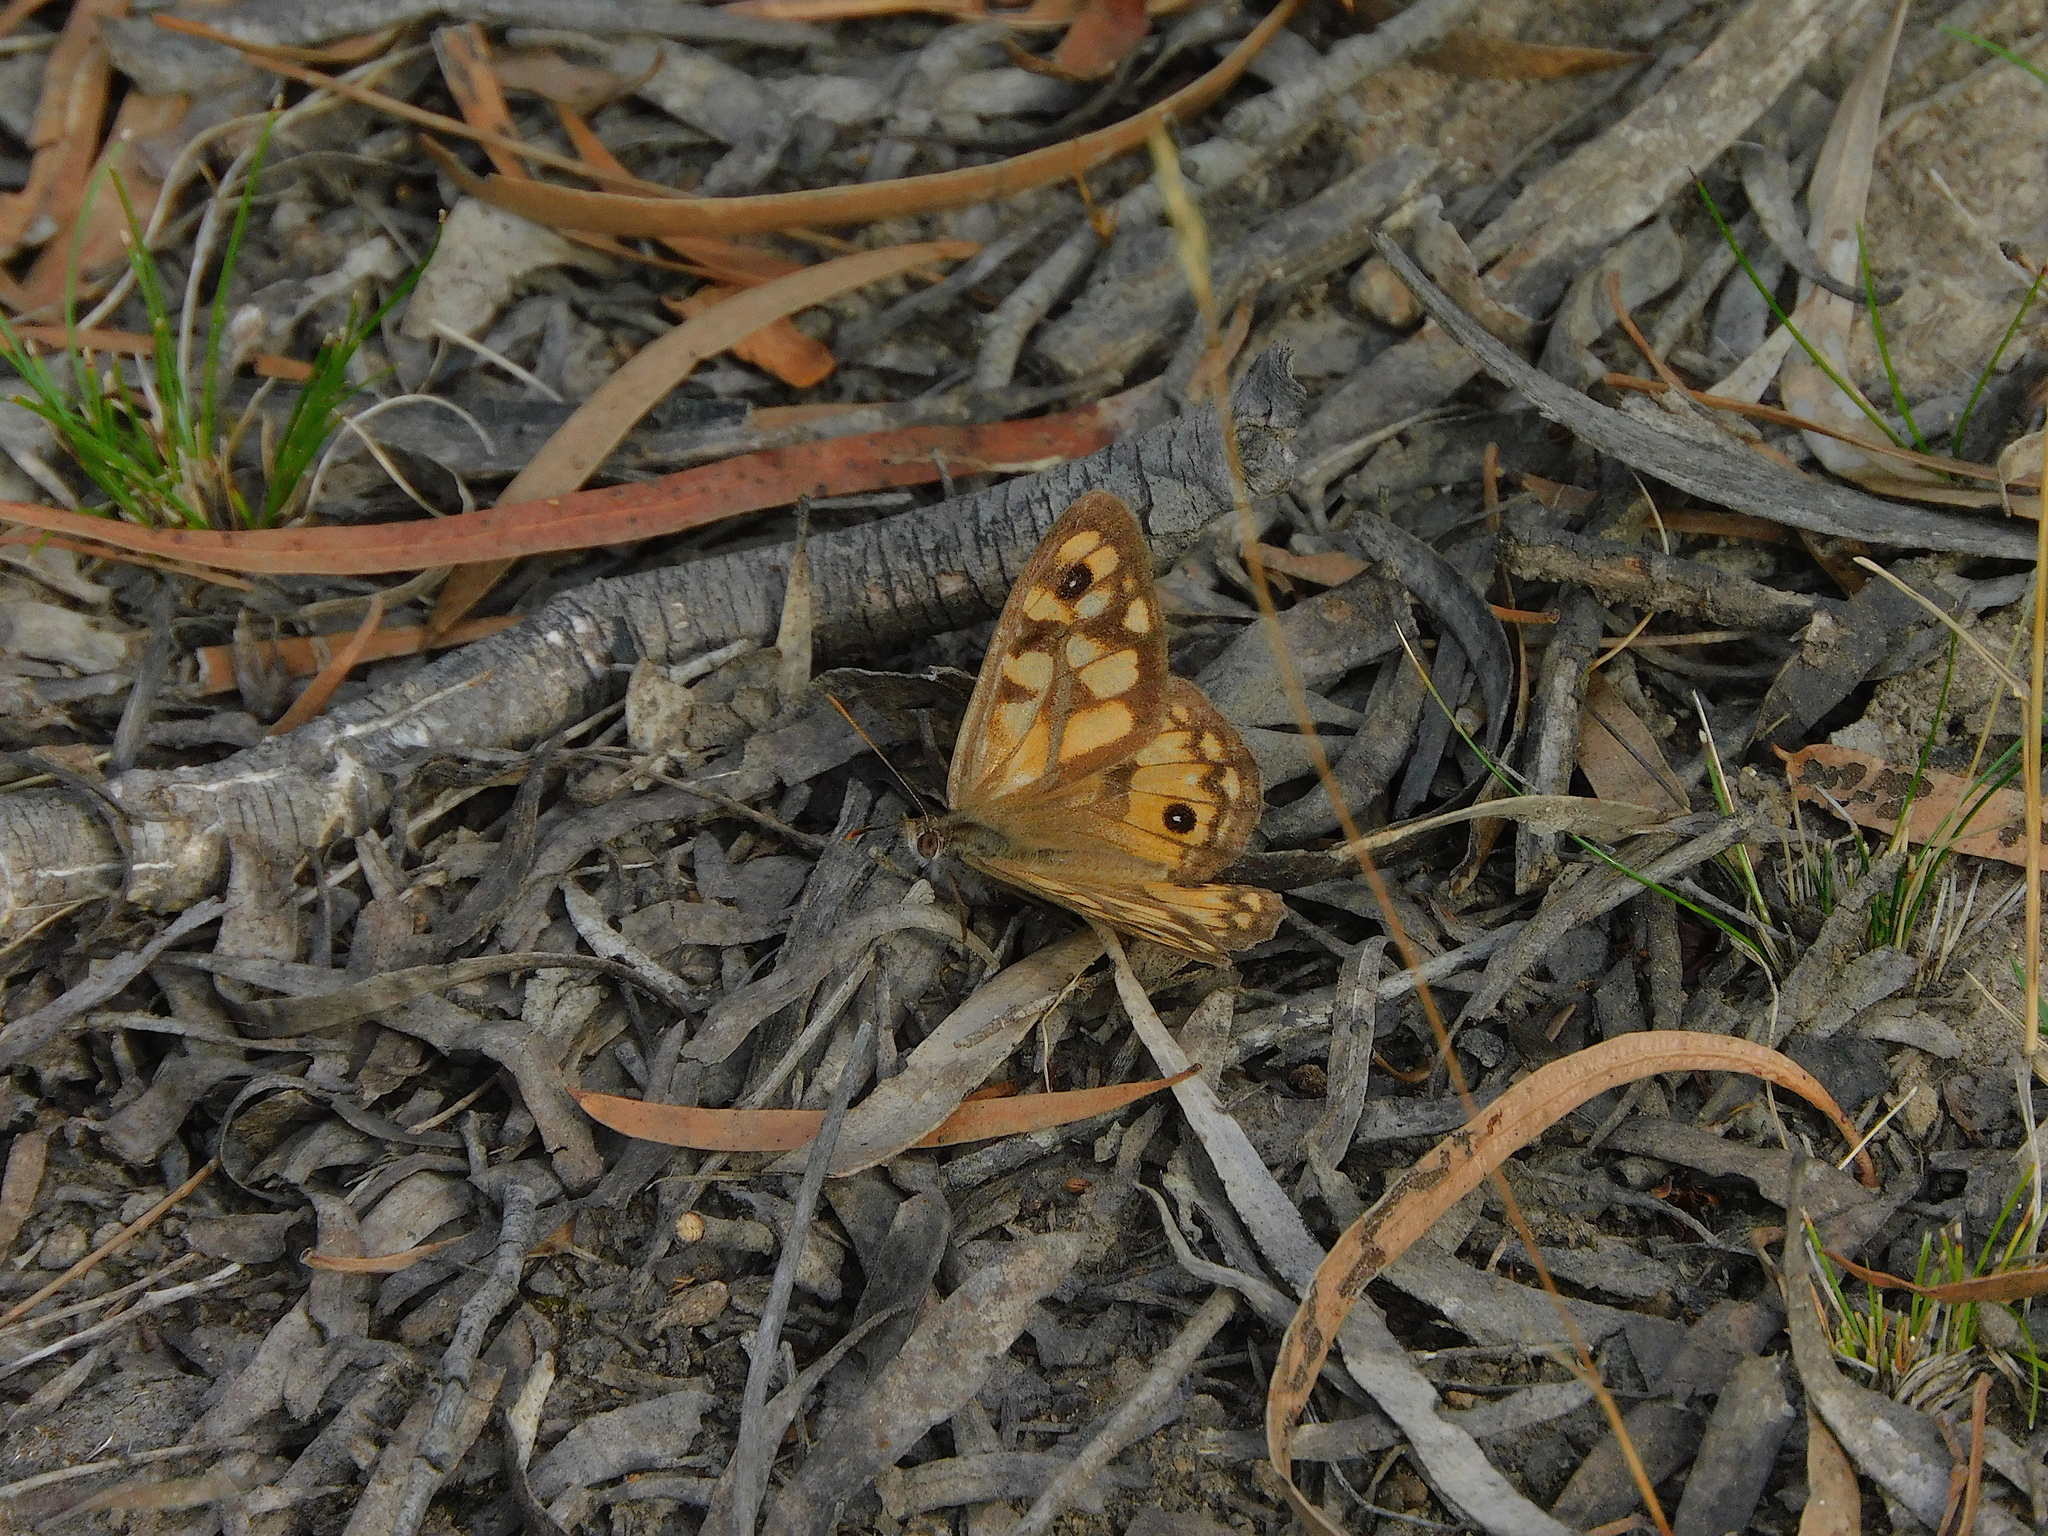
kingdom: Animalia
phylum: Arthropoda
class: Insecta
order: Lepidoptera
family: Nymphalidae
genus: Geitoneura
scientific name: Geitoneura klugii
